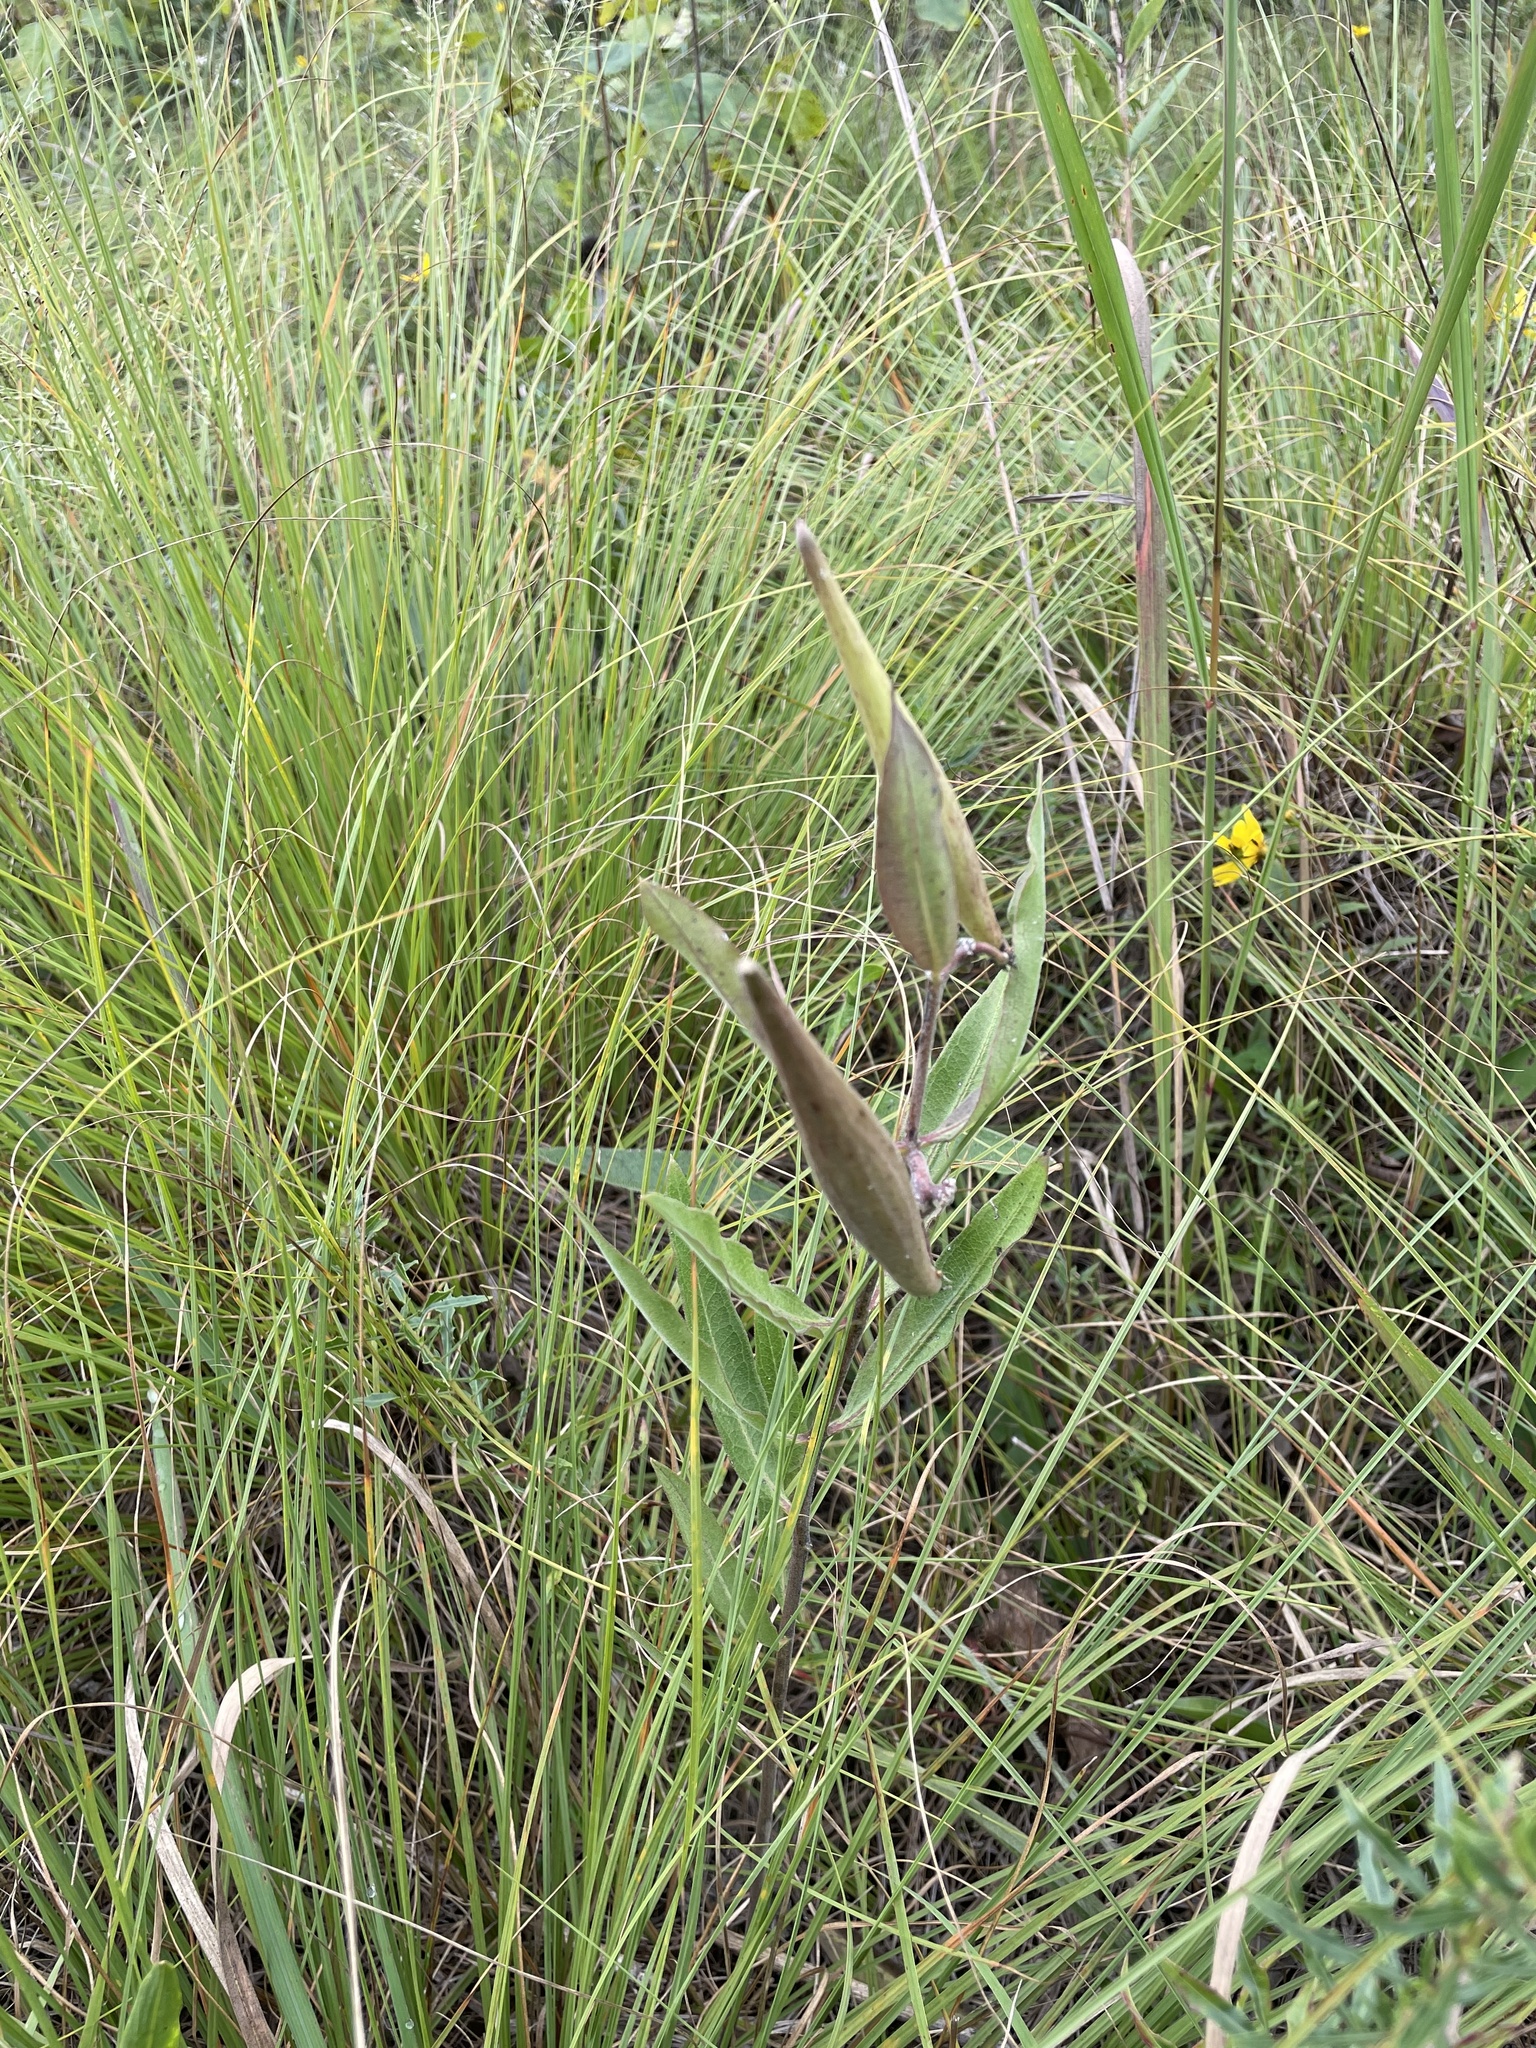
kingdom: Plantae
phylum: Tracheophyta
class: Magnoliopsida
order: Gentianales
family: Apocynaceae
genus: Asclepias
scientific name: Asclepias viridiflora
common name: Green comet milkweed
